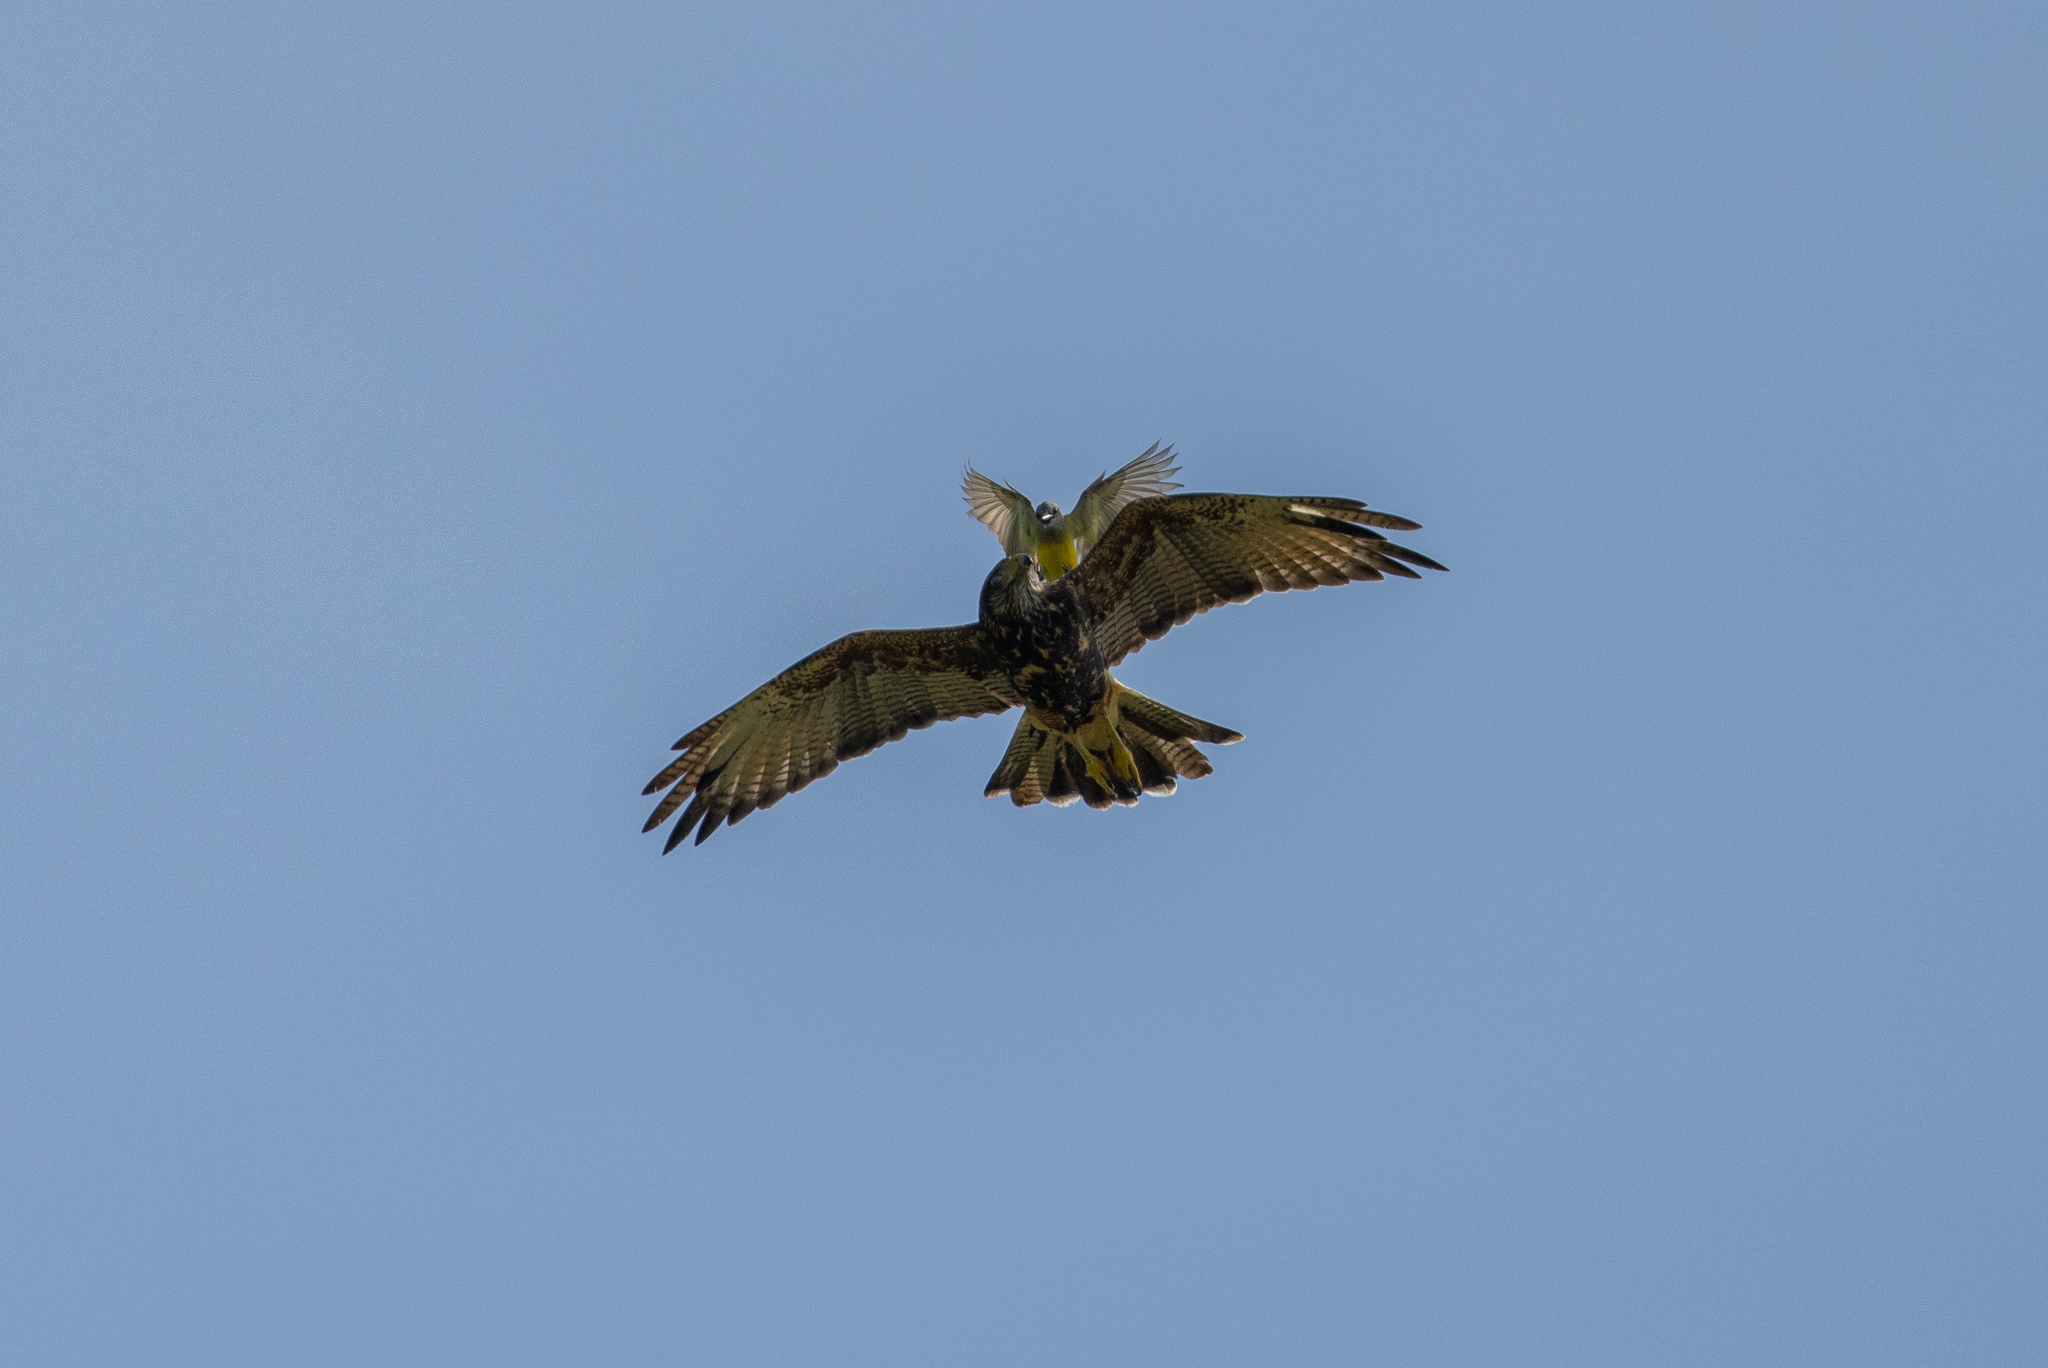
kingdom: Animalia
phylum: Chordata
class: Aves
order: Accipitriformes
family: Accipitridae
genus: Parabuteo
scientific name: Parabuteo unicinctus
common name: Harris's hawk
